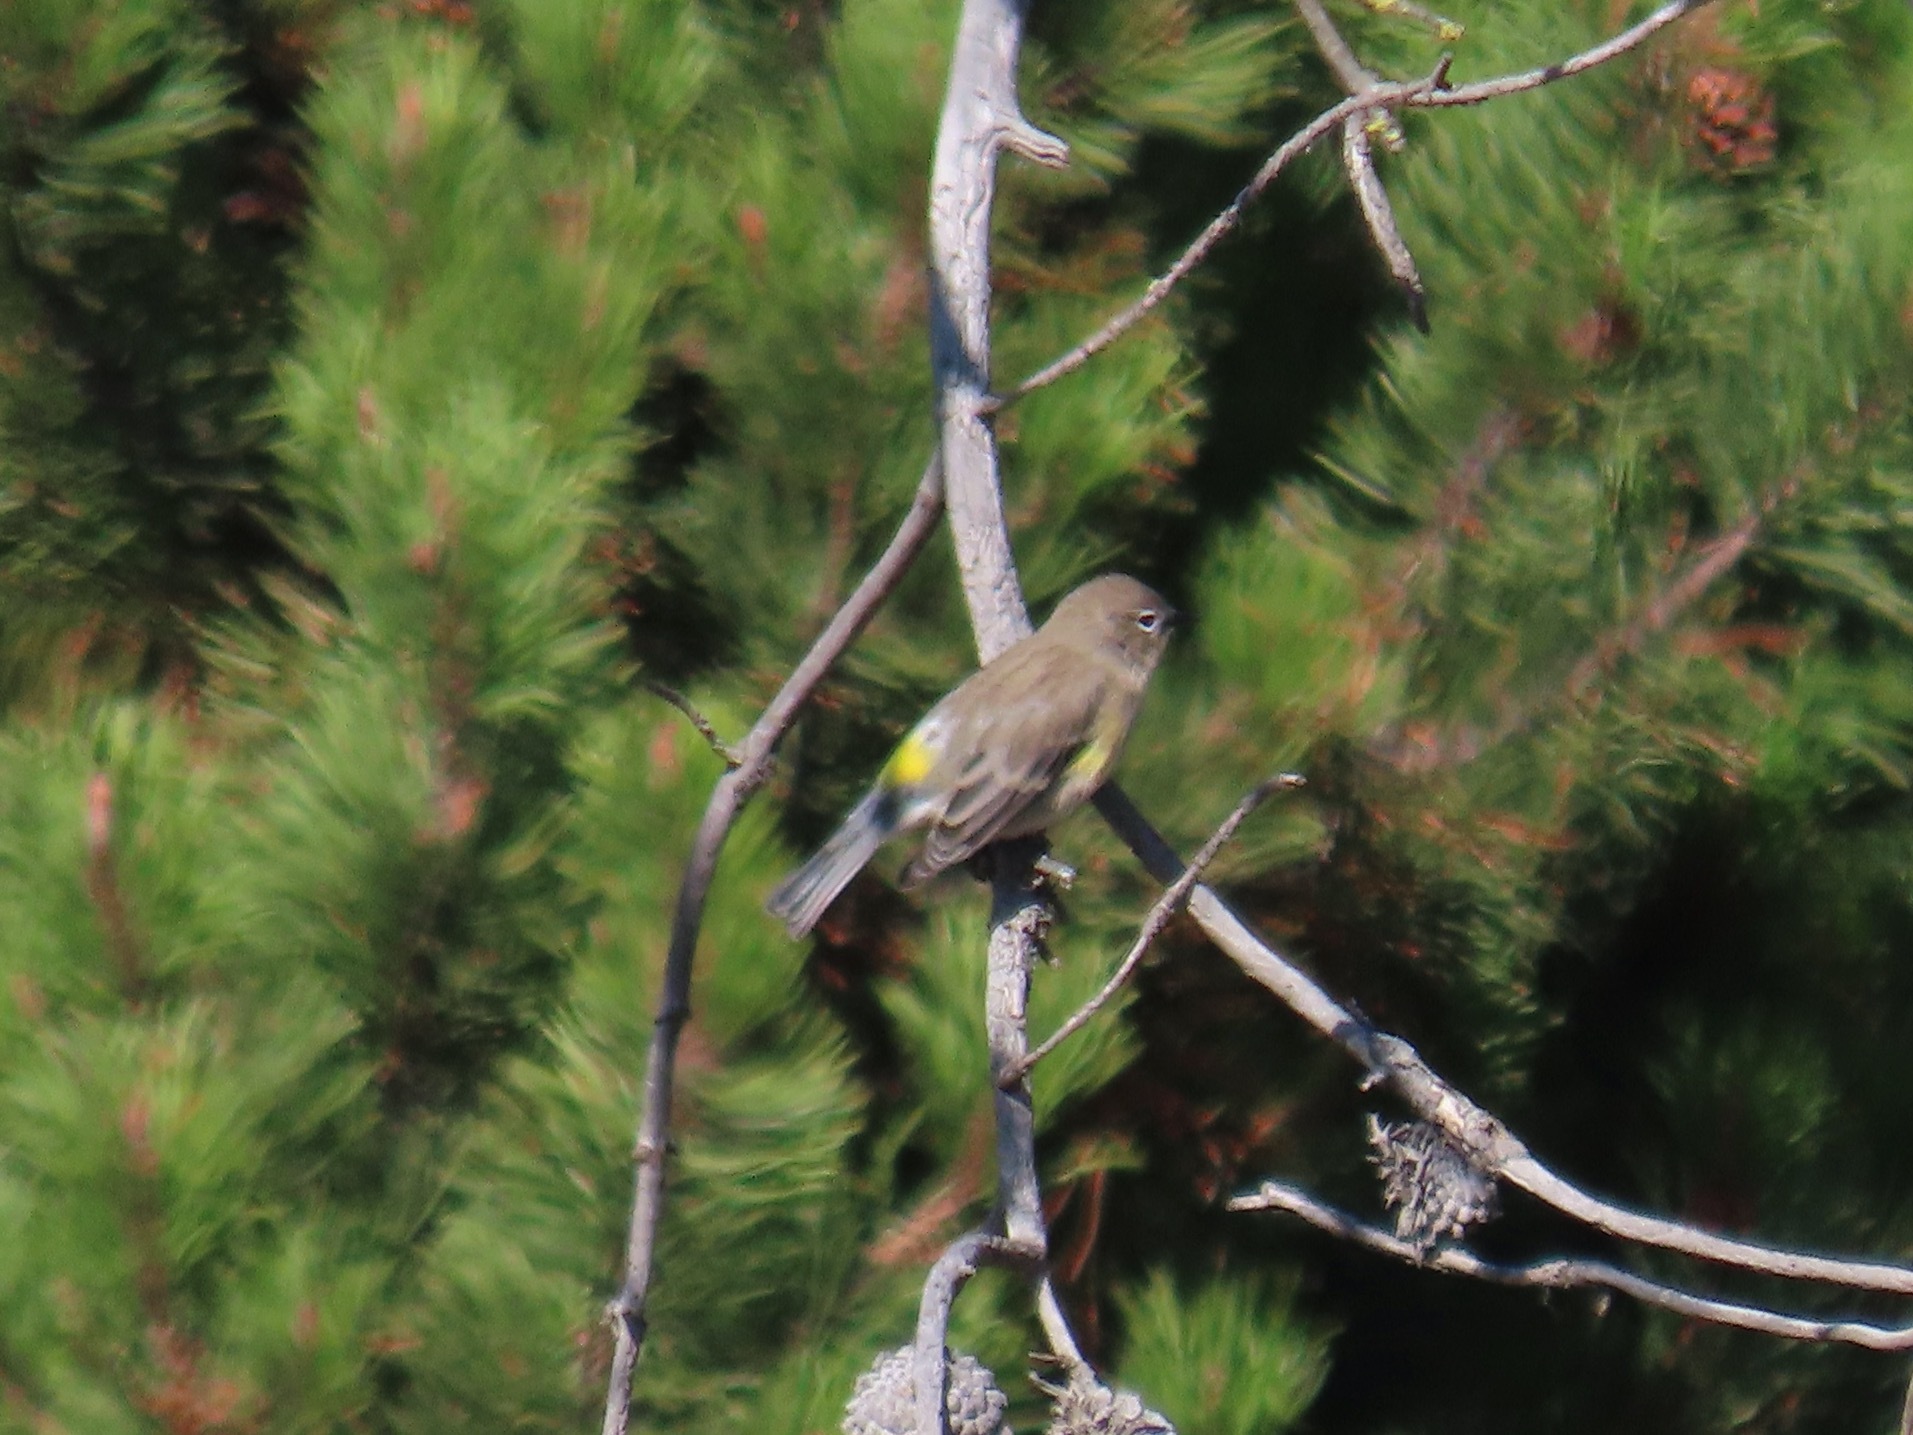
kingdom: Animalia
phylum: Chordata
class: Aves
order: Passeriformes
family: Parulidae
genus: Setophaga
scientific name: Setophaga coronata
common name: Myrtle warbler
